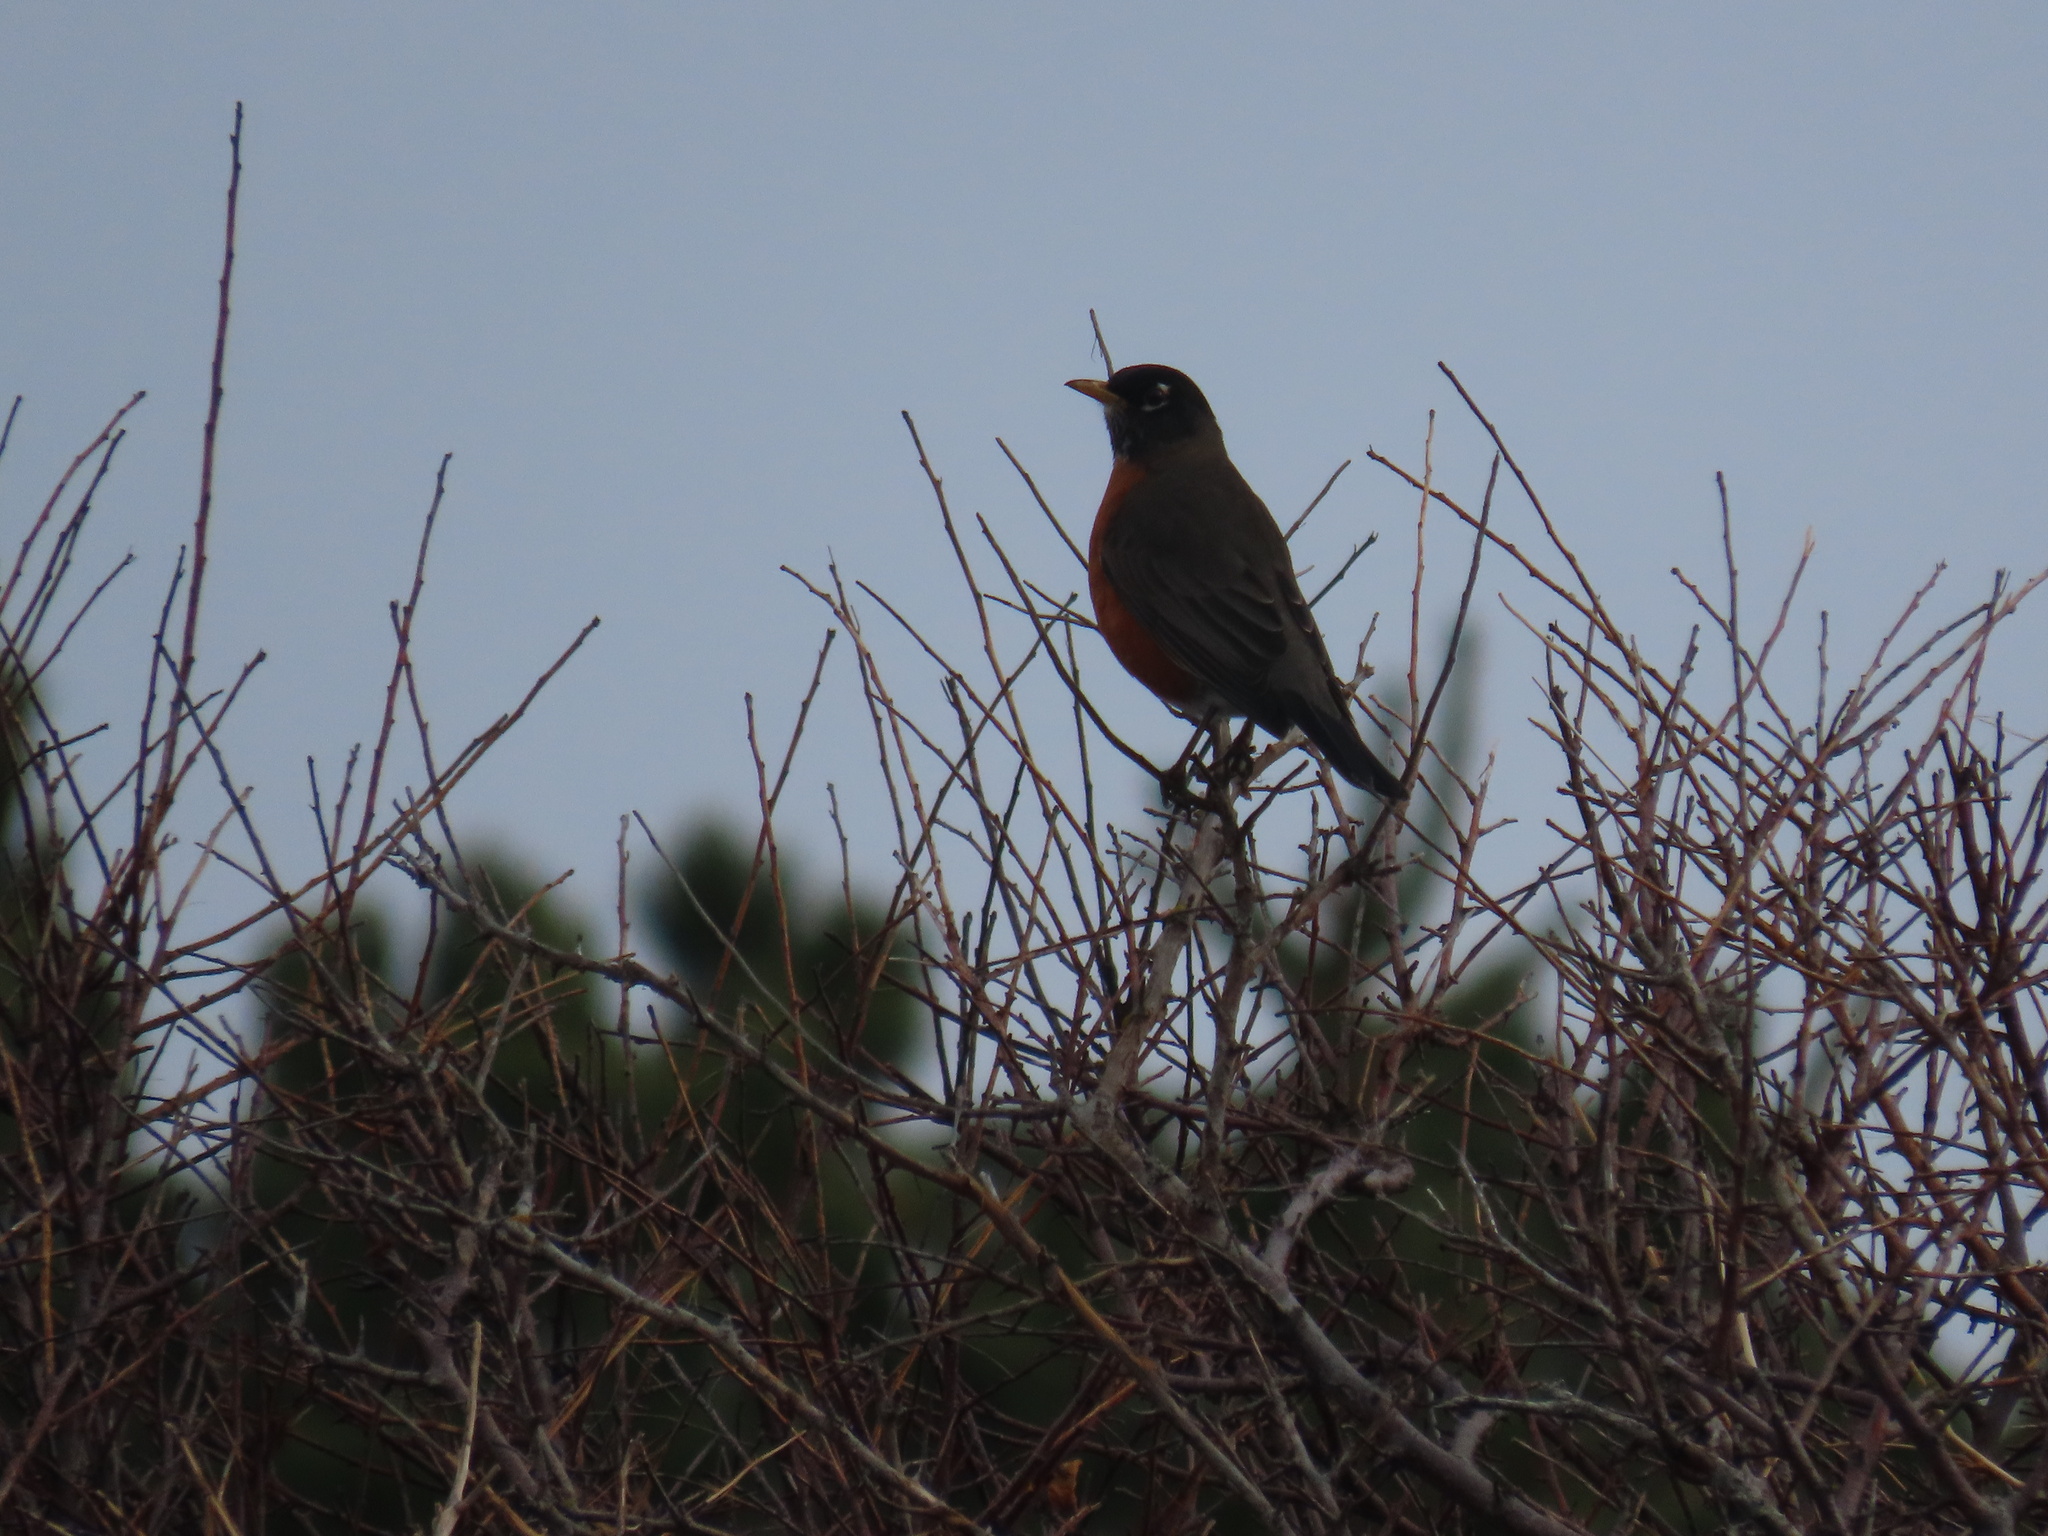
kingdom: Animalia
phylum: Chordata
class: Aves
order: Passeriformes
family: Turdidae
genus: Turdus
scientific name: Turdus migratorius
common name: American robin
